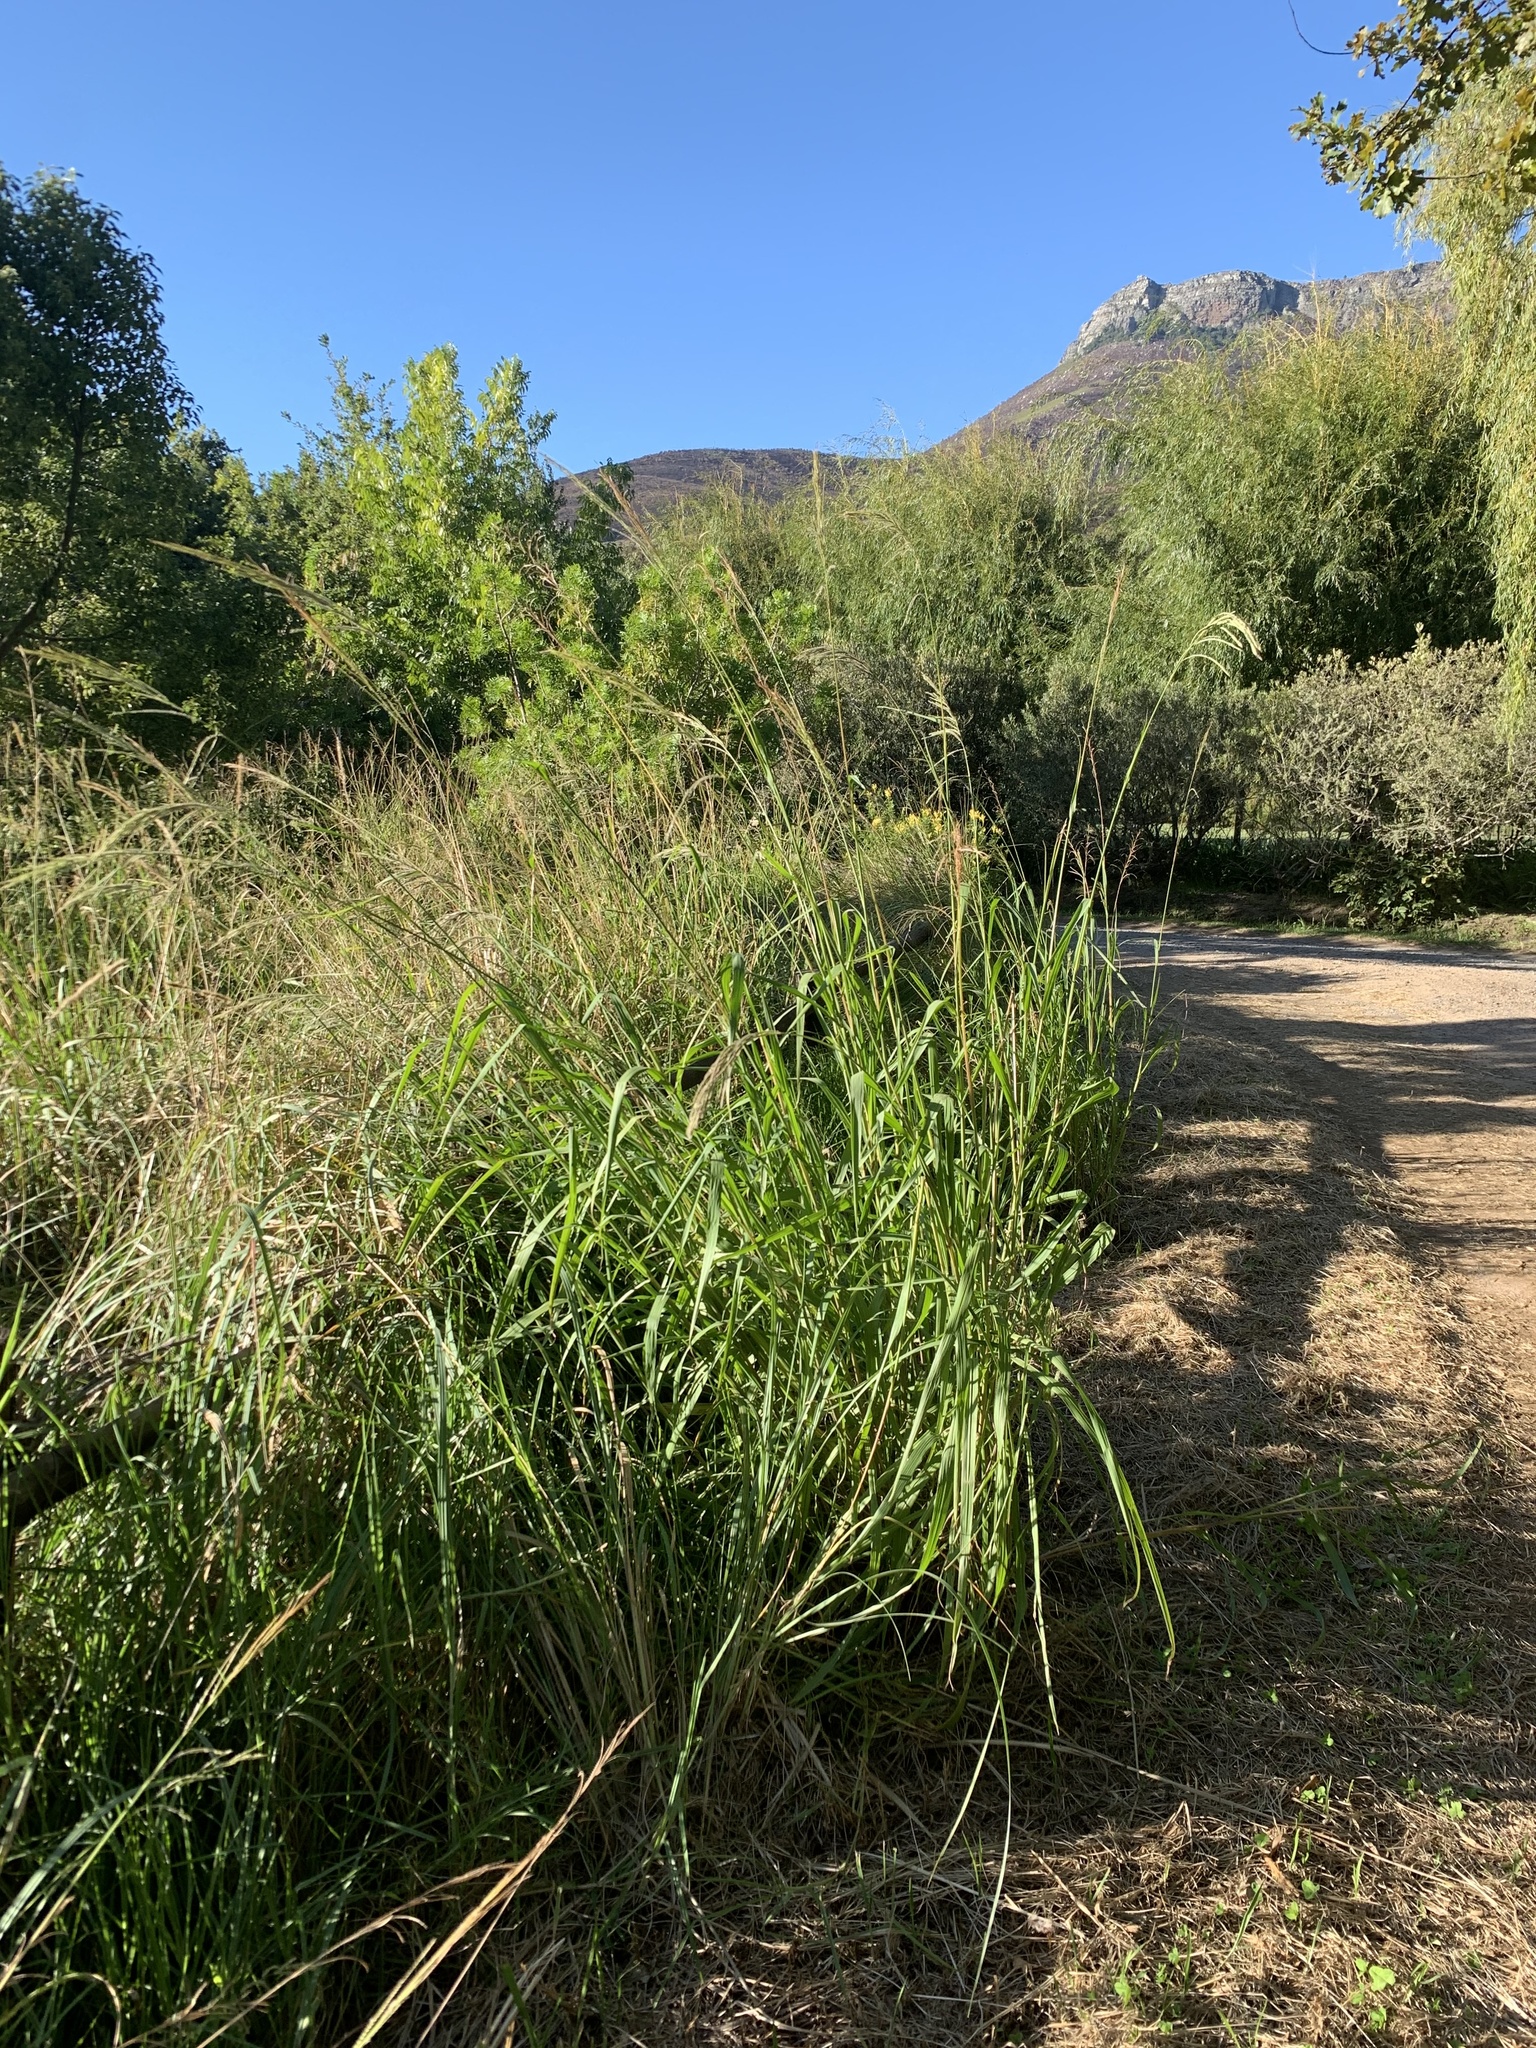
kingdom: Plantae
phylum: Tracheophyta
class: Liliopsida
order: Poales
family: Poaceae
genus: Paspalum
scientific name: Paspalum urvillei
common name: Vasey's grass
